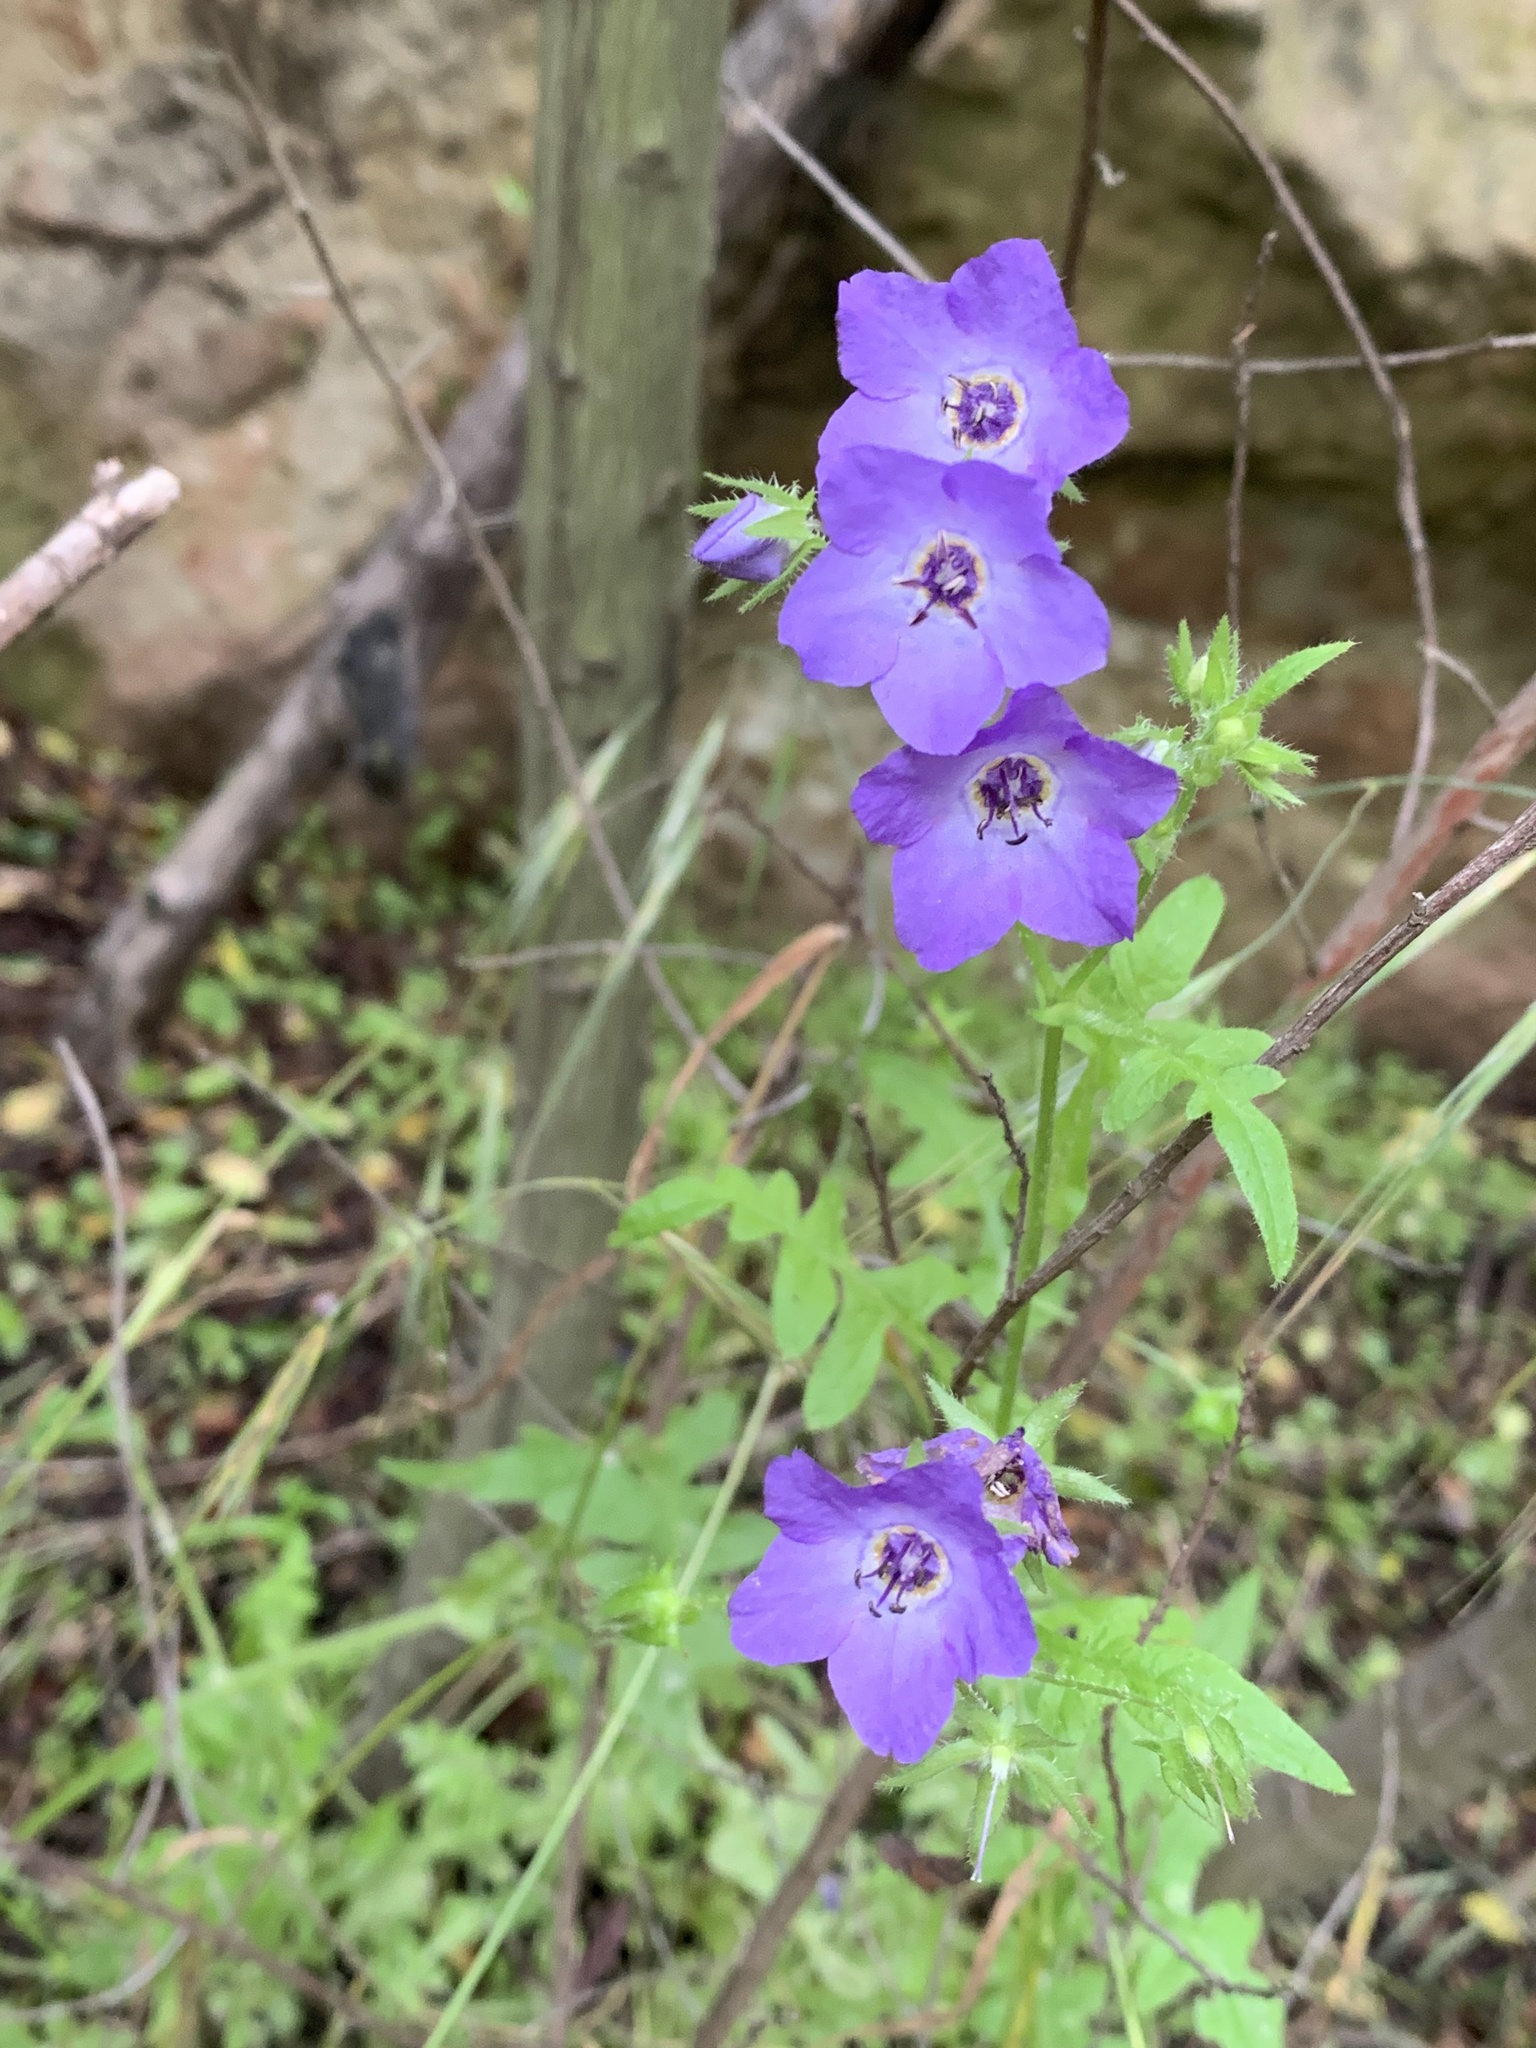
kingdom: Plantae
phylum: Tracheophyta
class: Magnoliopsida
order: Boraginales
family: Hydrophyllaceae
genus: Pholistoma
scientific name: Pholistoma auritum
